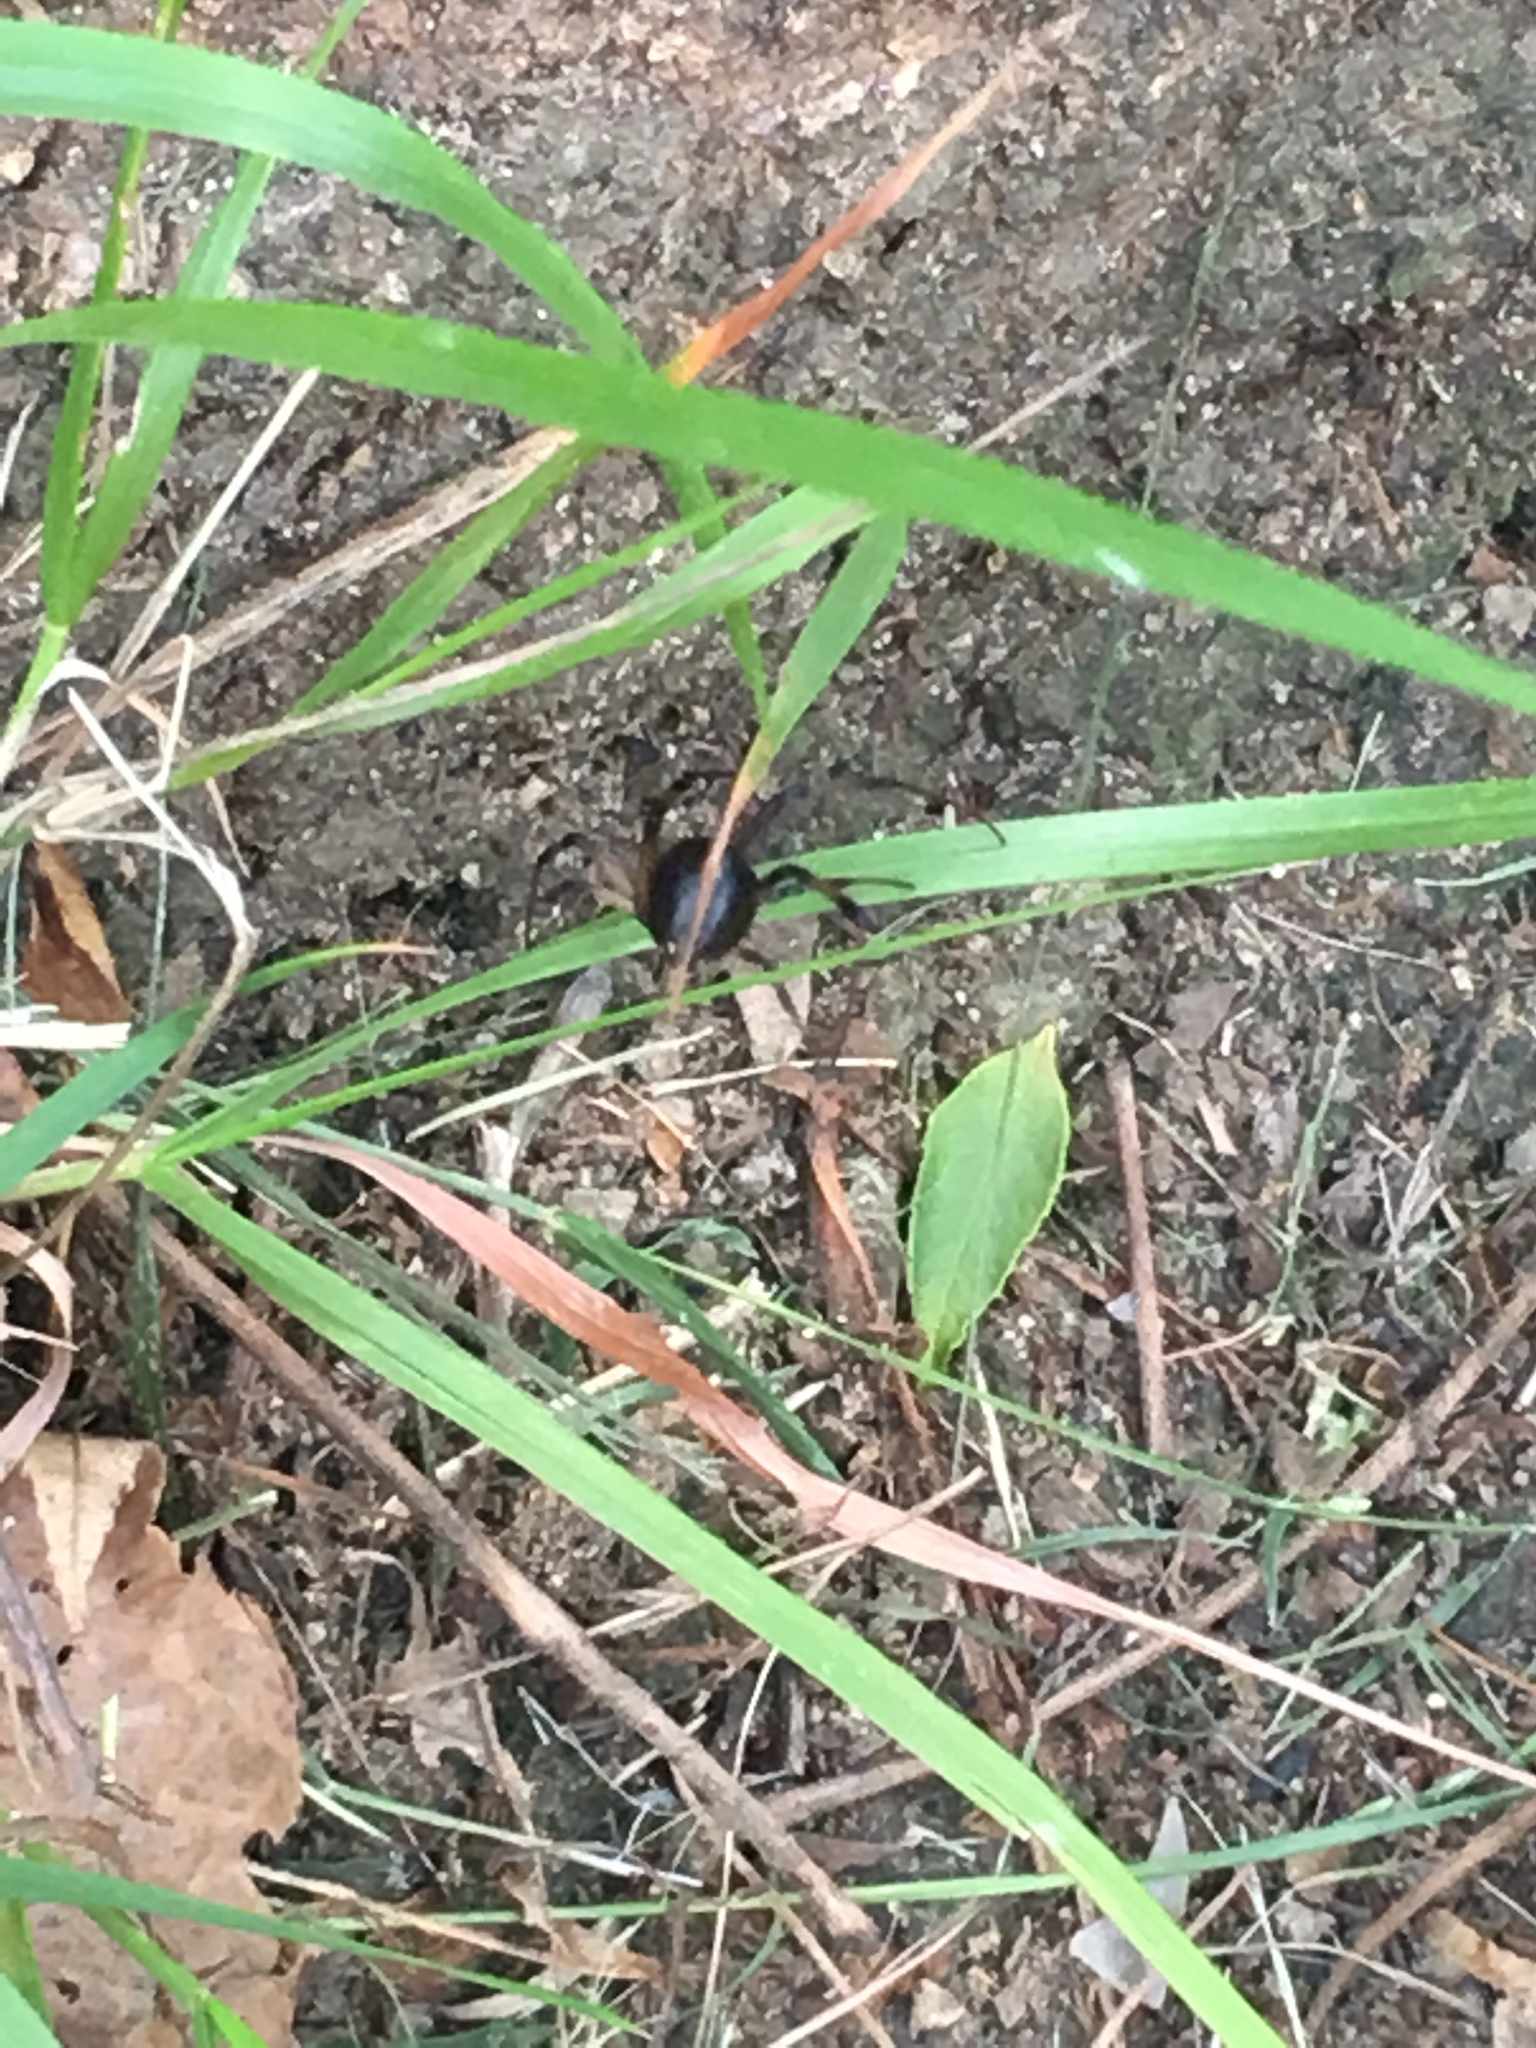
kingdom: Animalia
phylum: Arthropoda
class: Arachnida
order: Araneae
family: Theridiidae
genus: Latrodectus
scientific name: Latrodectus hesperus
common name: Western black widow
